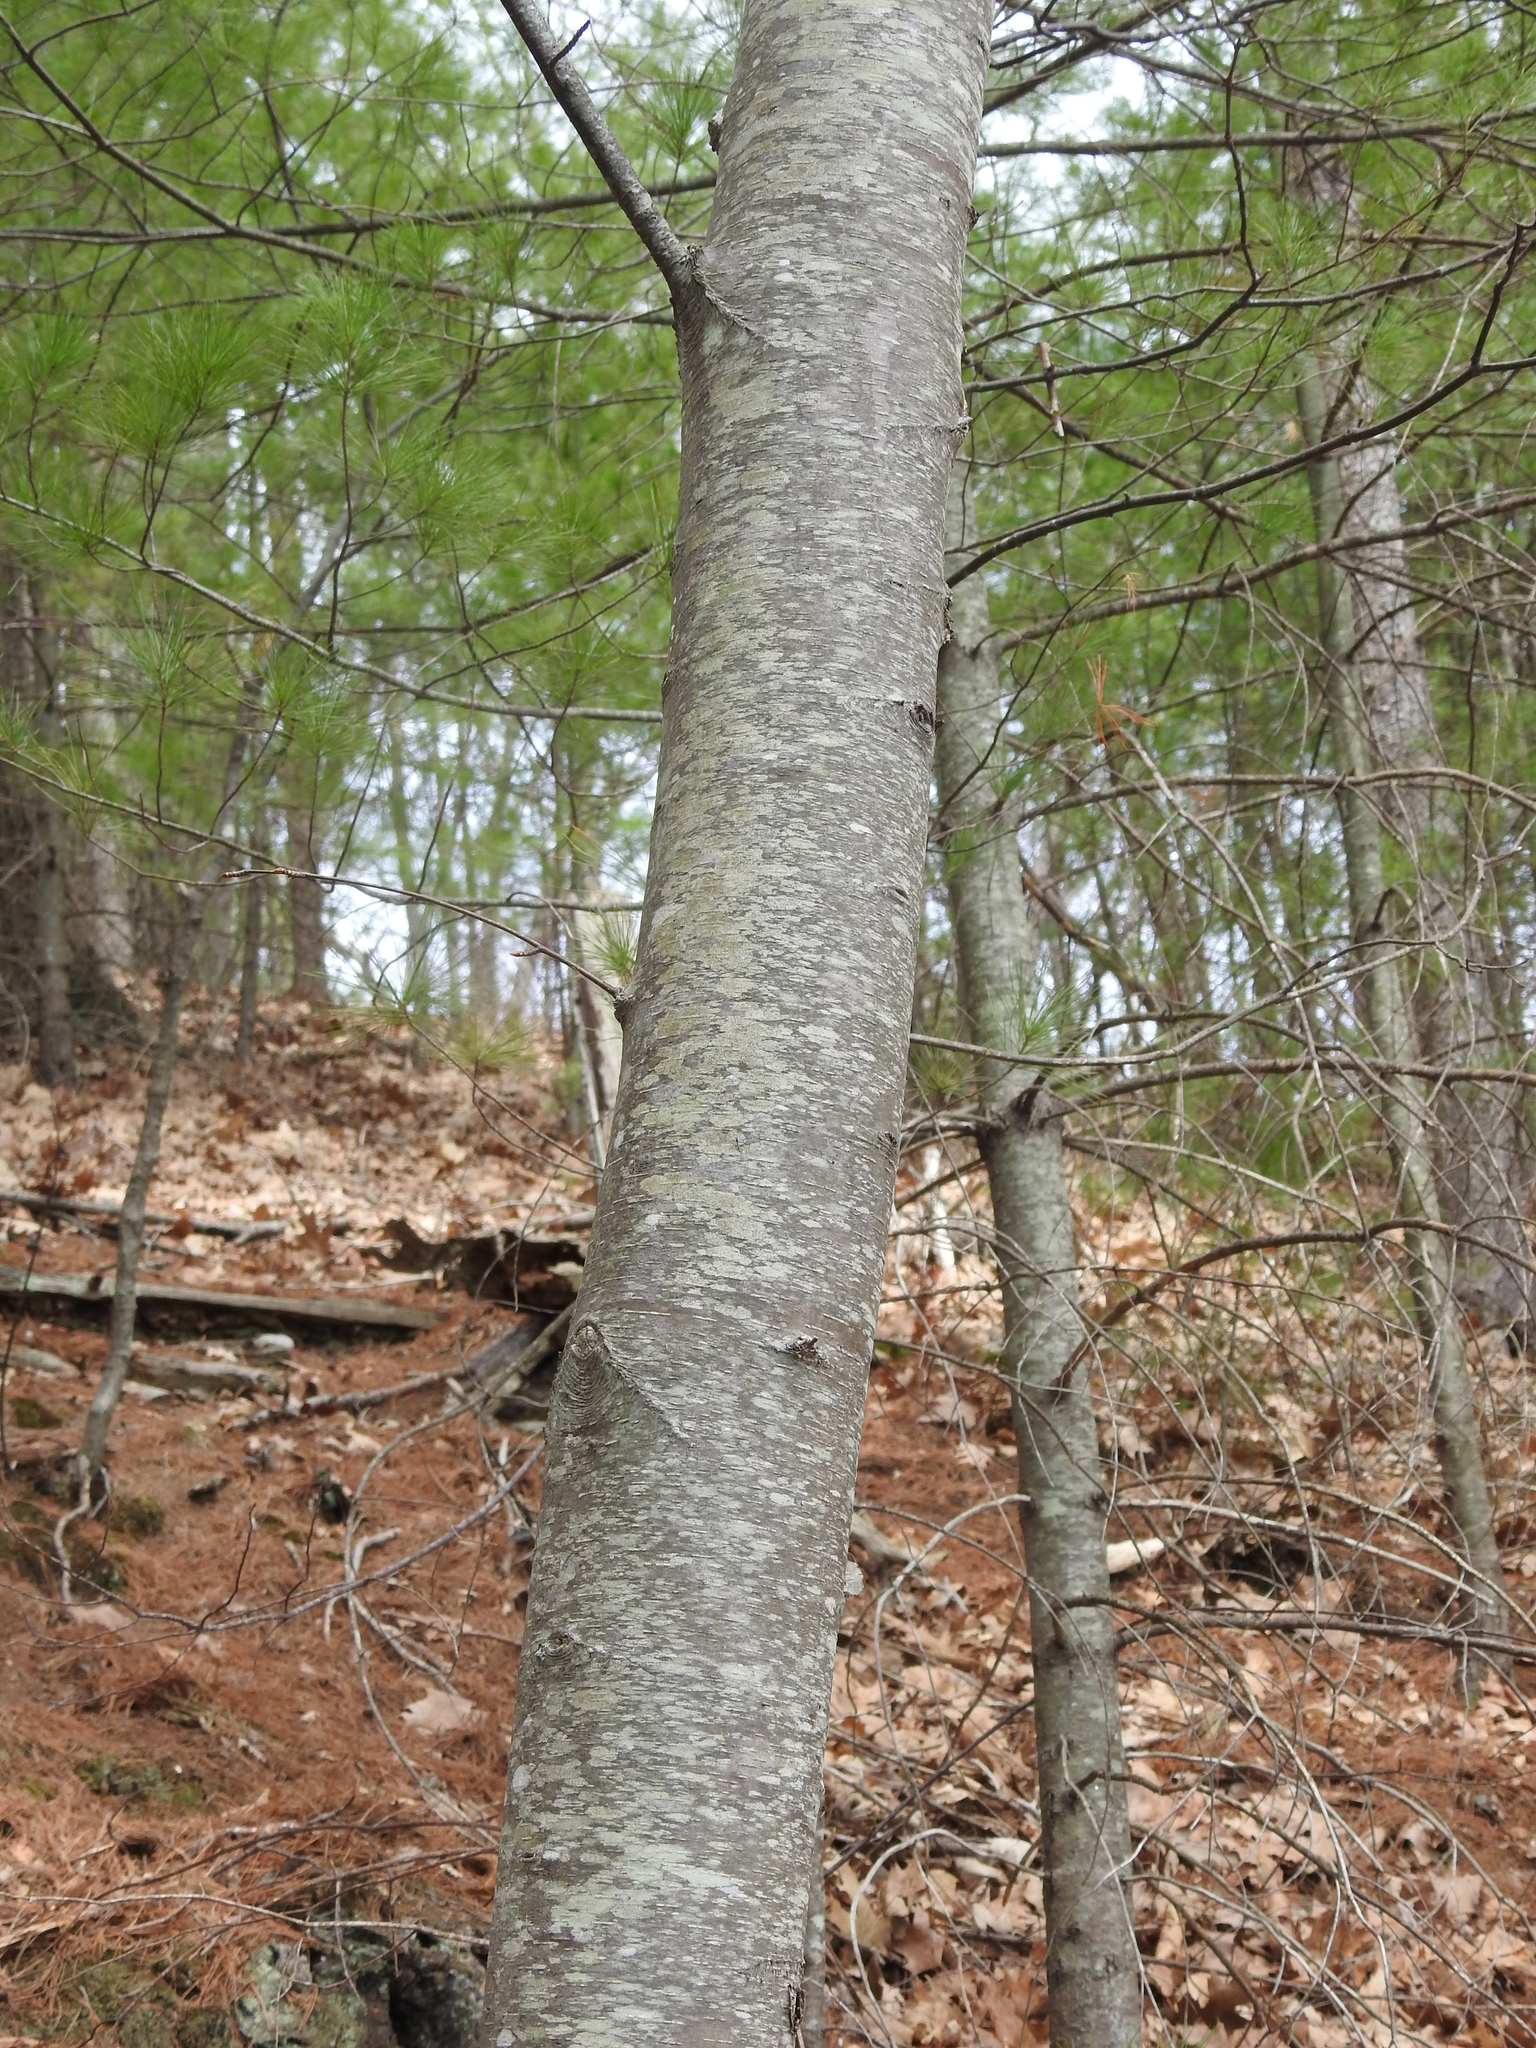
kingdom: Plantae
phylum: Tracheophyta
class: Magnoliopsida
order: Fagales
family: Betulaceae
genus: Betula
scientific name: Betula lenta
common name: Black birch
